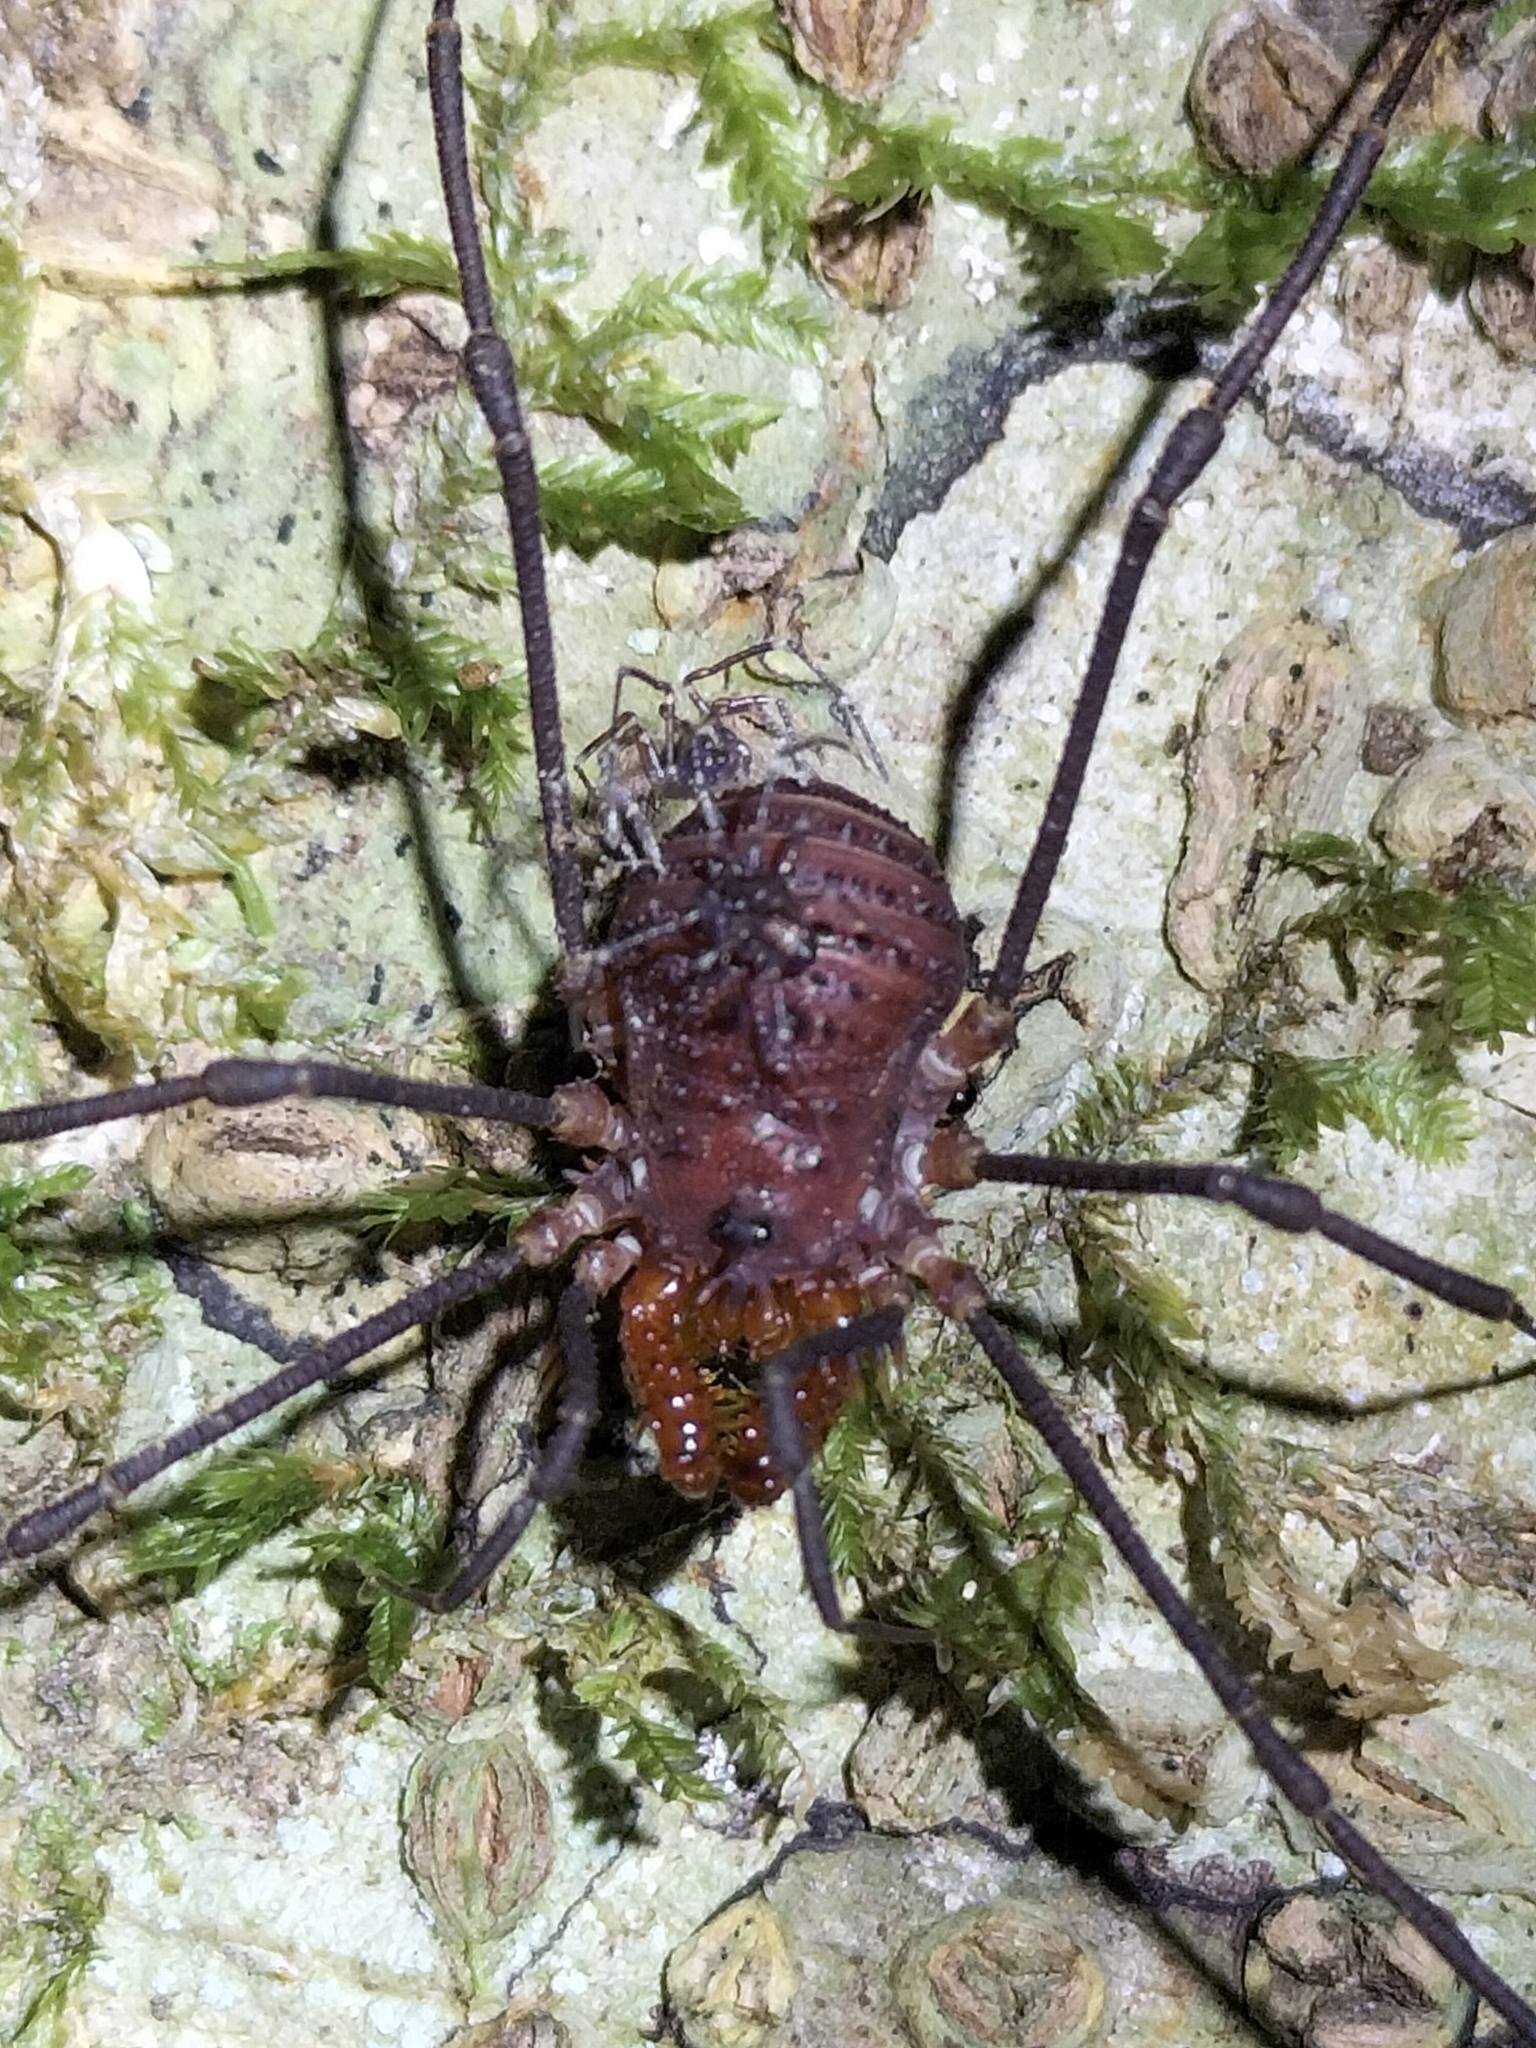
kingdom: Animalia
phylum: Arthropoda
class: Arachnida
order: Opiliones
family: Triaenonychidae
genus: Heteronuncia
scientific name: Heteronuncia robusta
